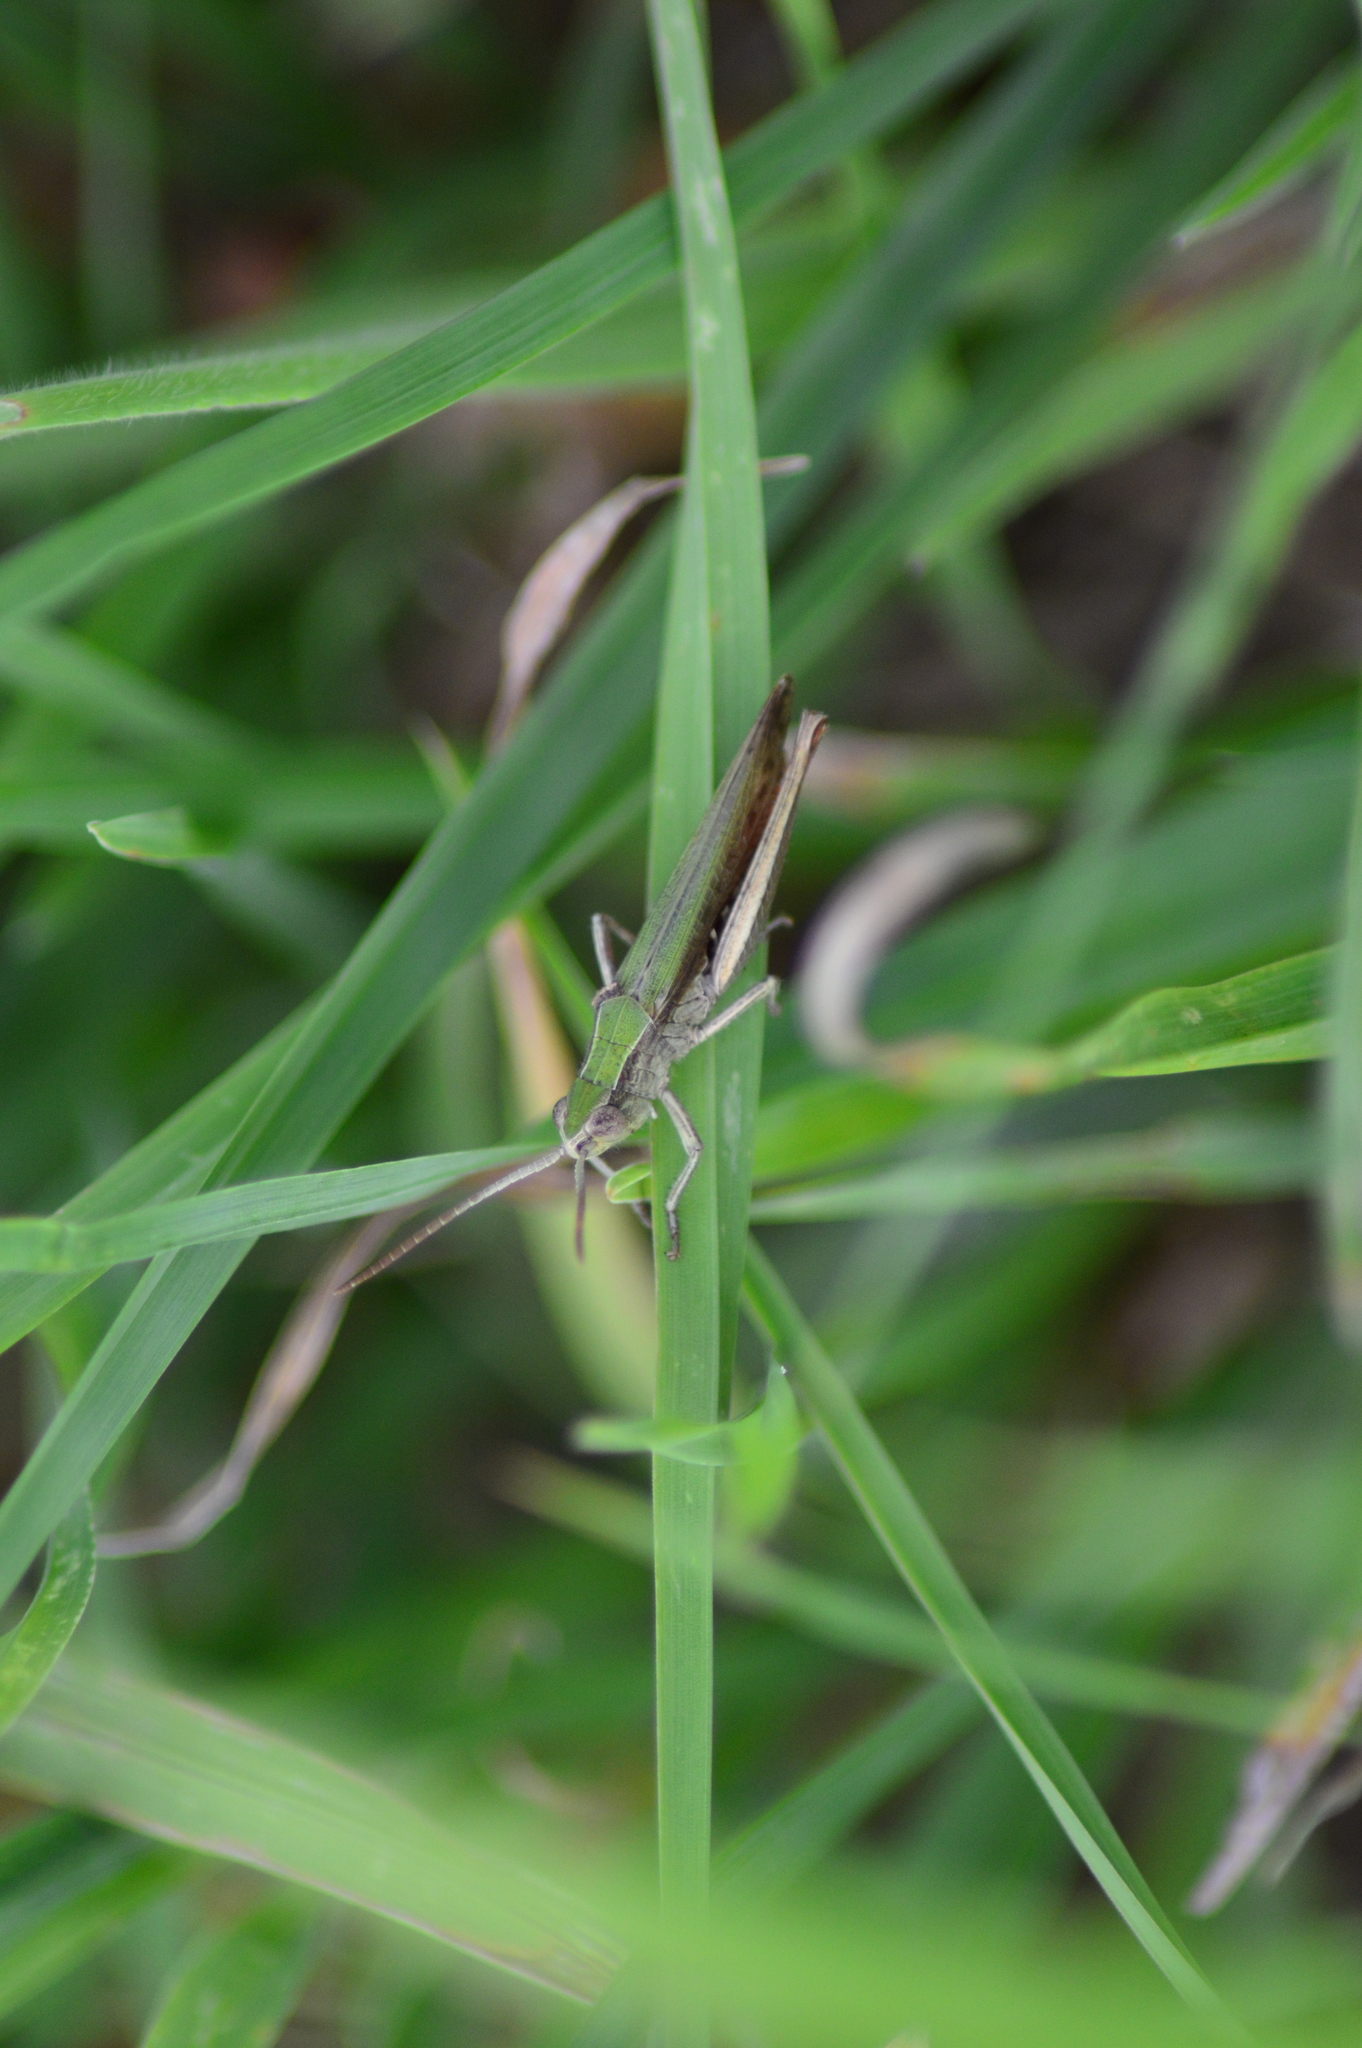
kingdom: Animalia
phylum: Arthropoda
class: Insecta
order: Orthoptera
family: Acrididae
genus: Chorthippus
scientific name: Chorthippus dorsatus
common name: Steppe grasshopper
